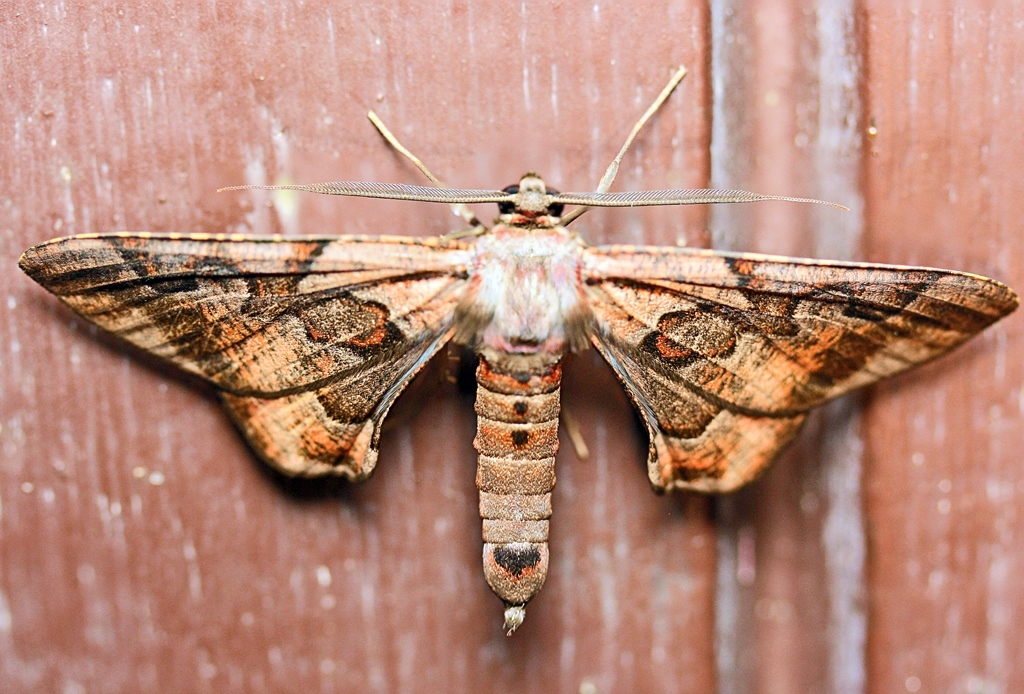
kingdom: Animalia
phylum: Arthropoda
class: Insecta
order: Lepidoptera
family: Geometridae
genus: Hypochrosis
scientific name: Hypochrosis binexata
